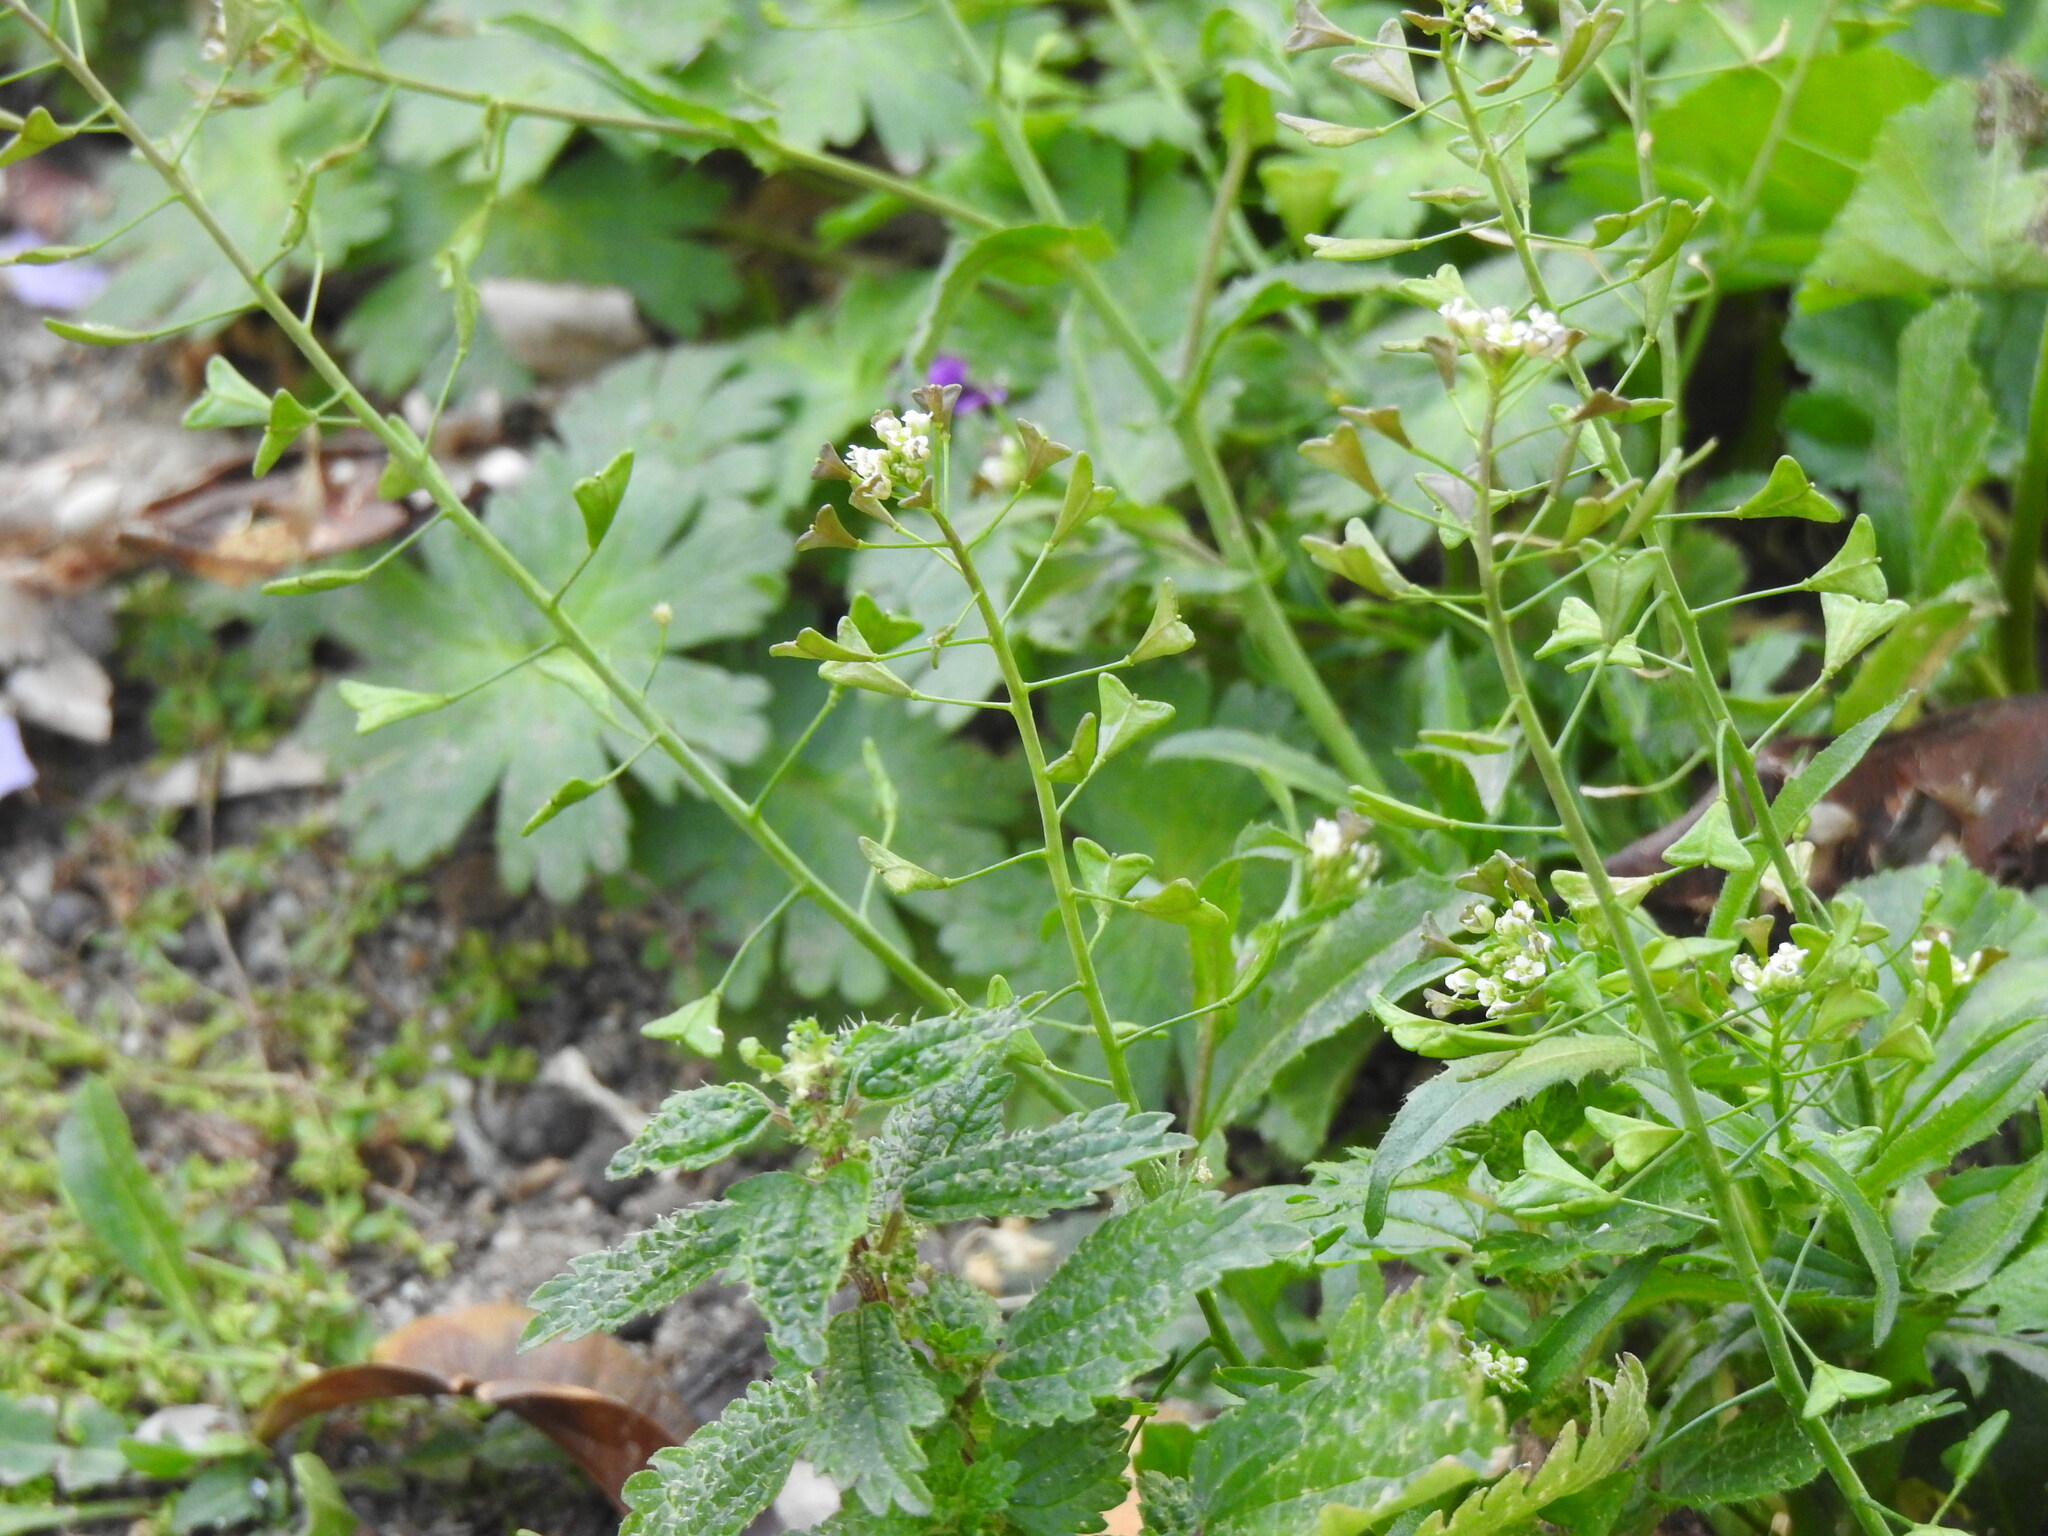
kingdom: Plantae
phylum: Tracheophyta
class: Magnoliopsida
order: Brassicales
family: Brassicaceae
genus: Capsella
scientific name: Capsella bursa-pastoris
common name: Shepherd's purse
